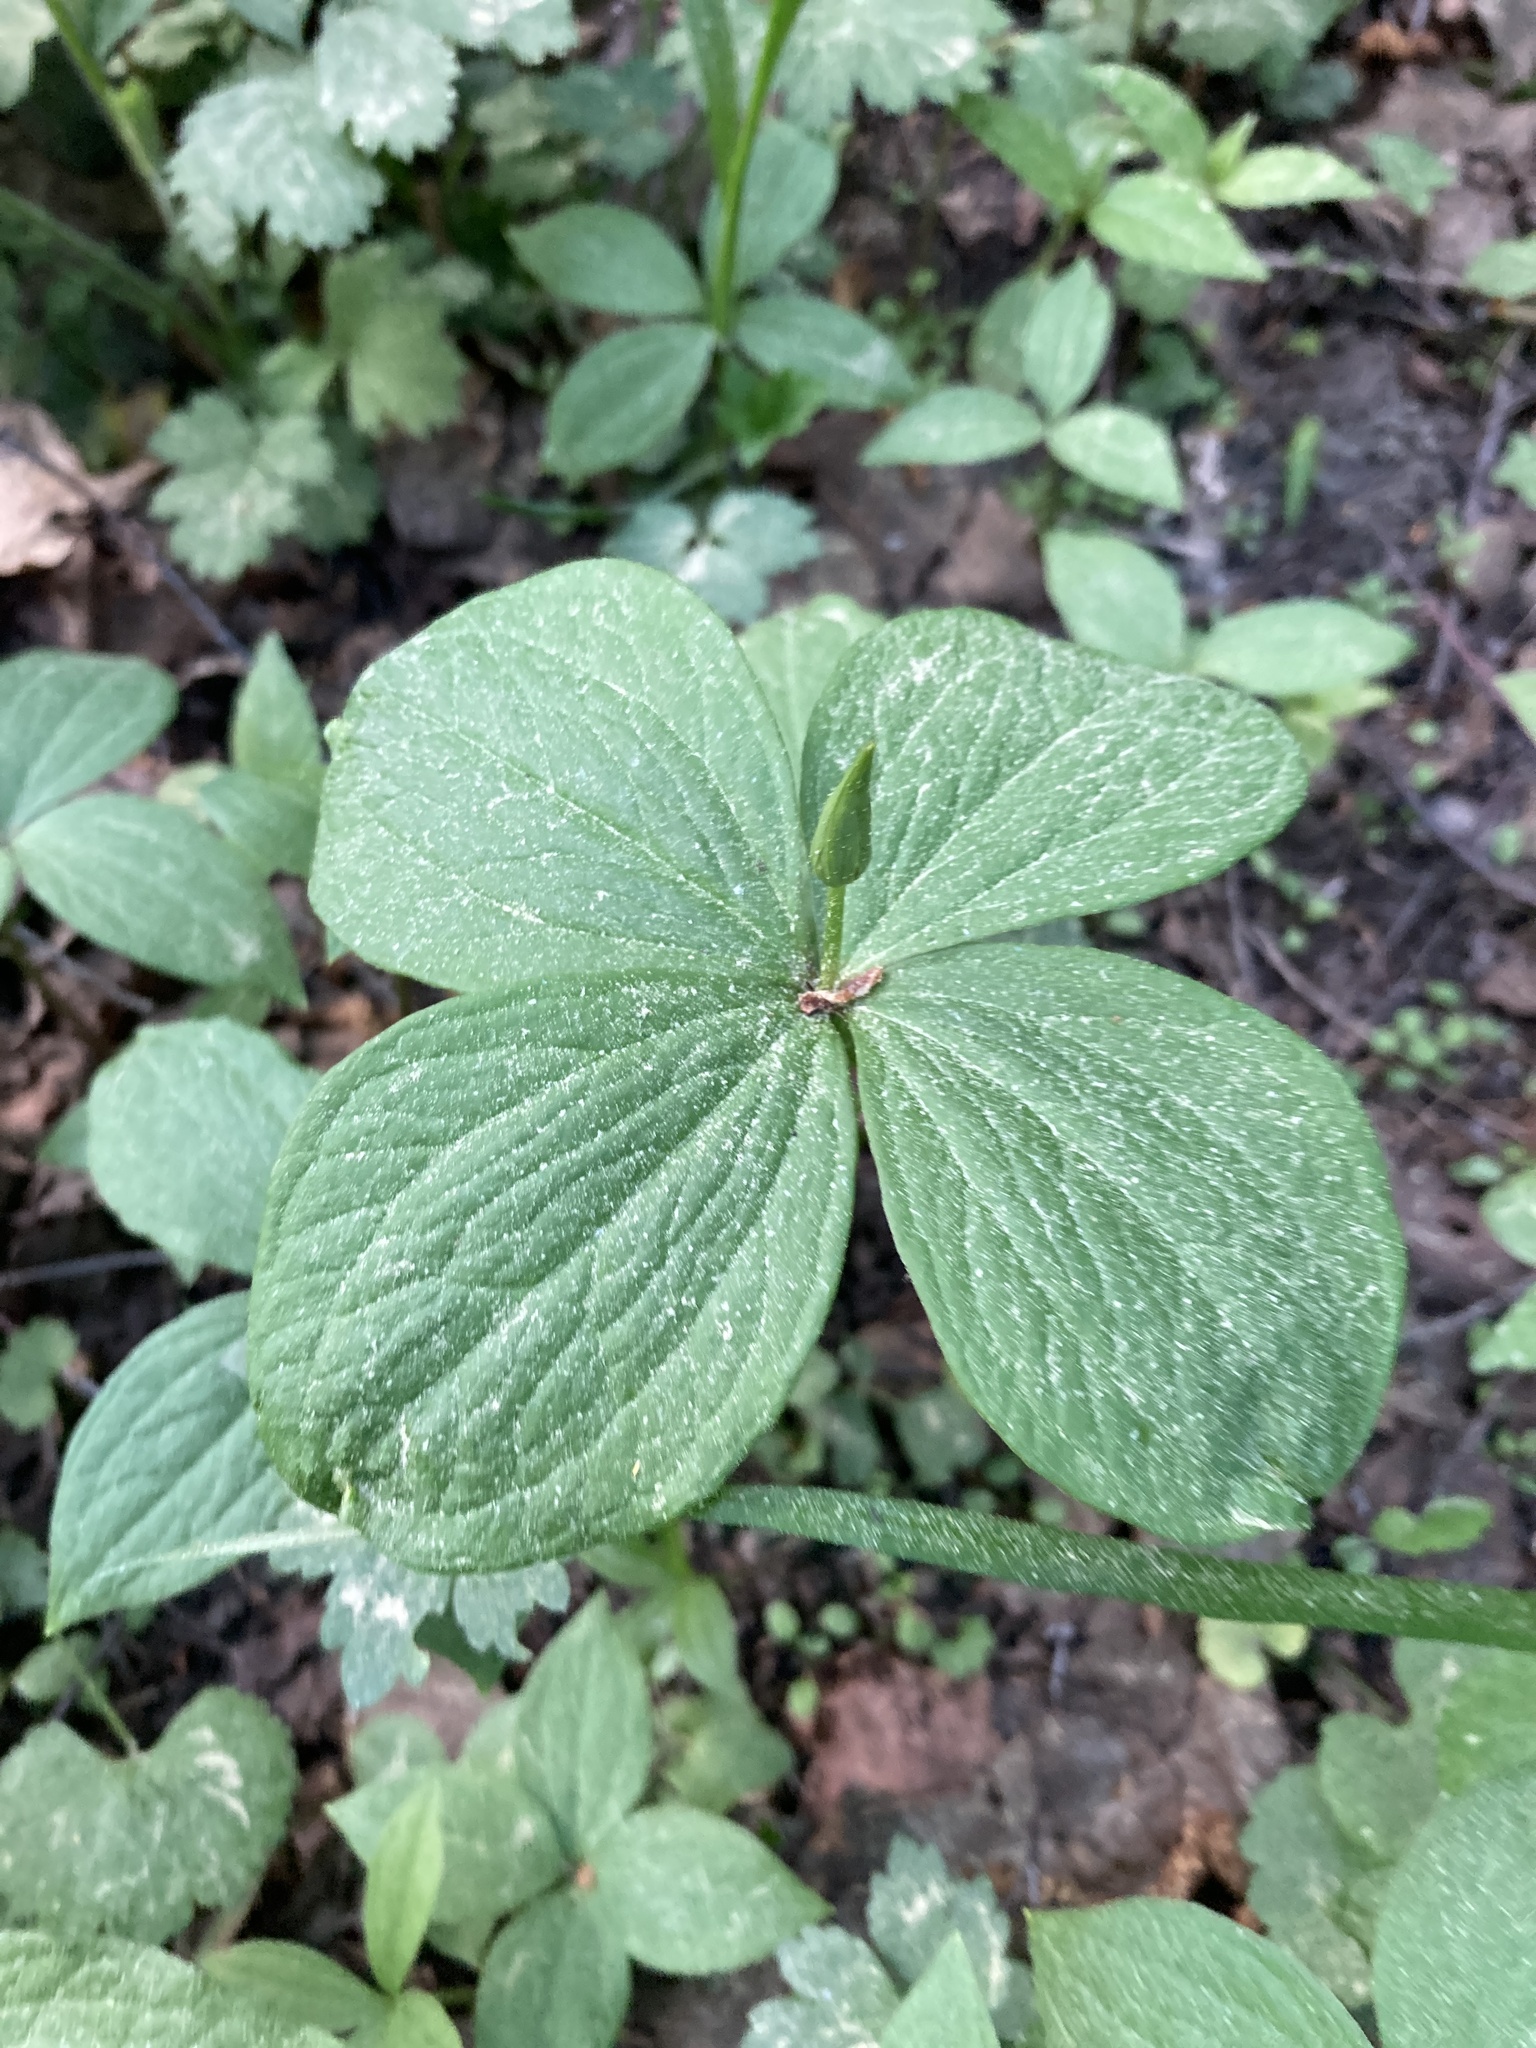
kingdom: Plantae
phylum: Tracheophyta
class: Liliopsida
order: Liliales
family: Melanthiaceae
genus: Paris
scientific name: Paris quadrifolia
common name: Herb-paris
